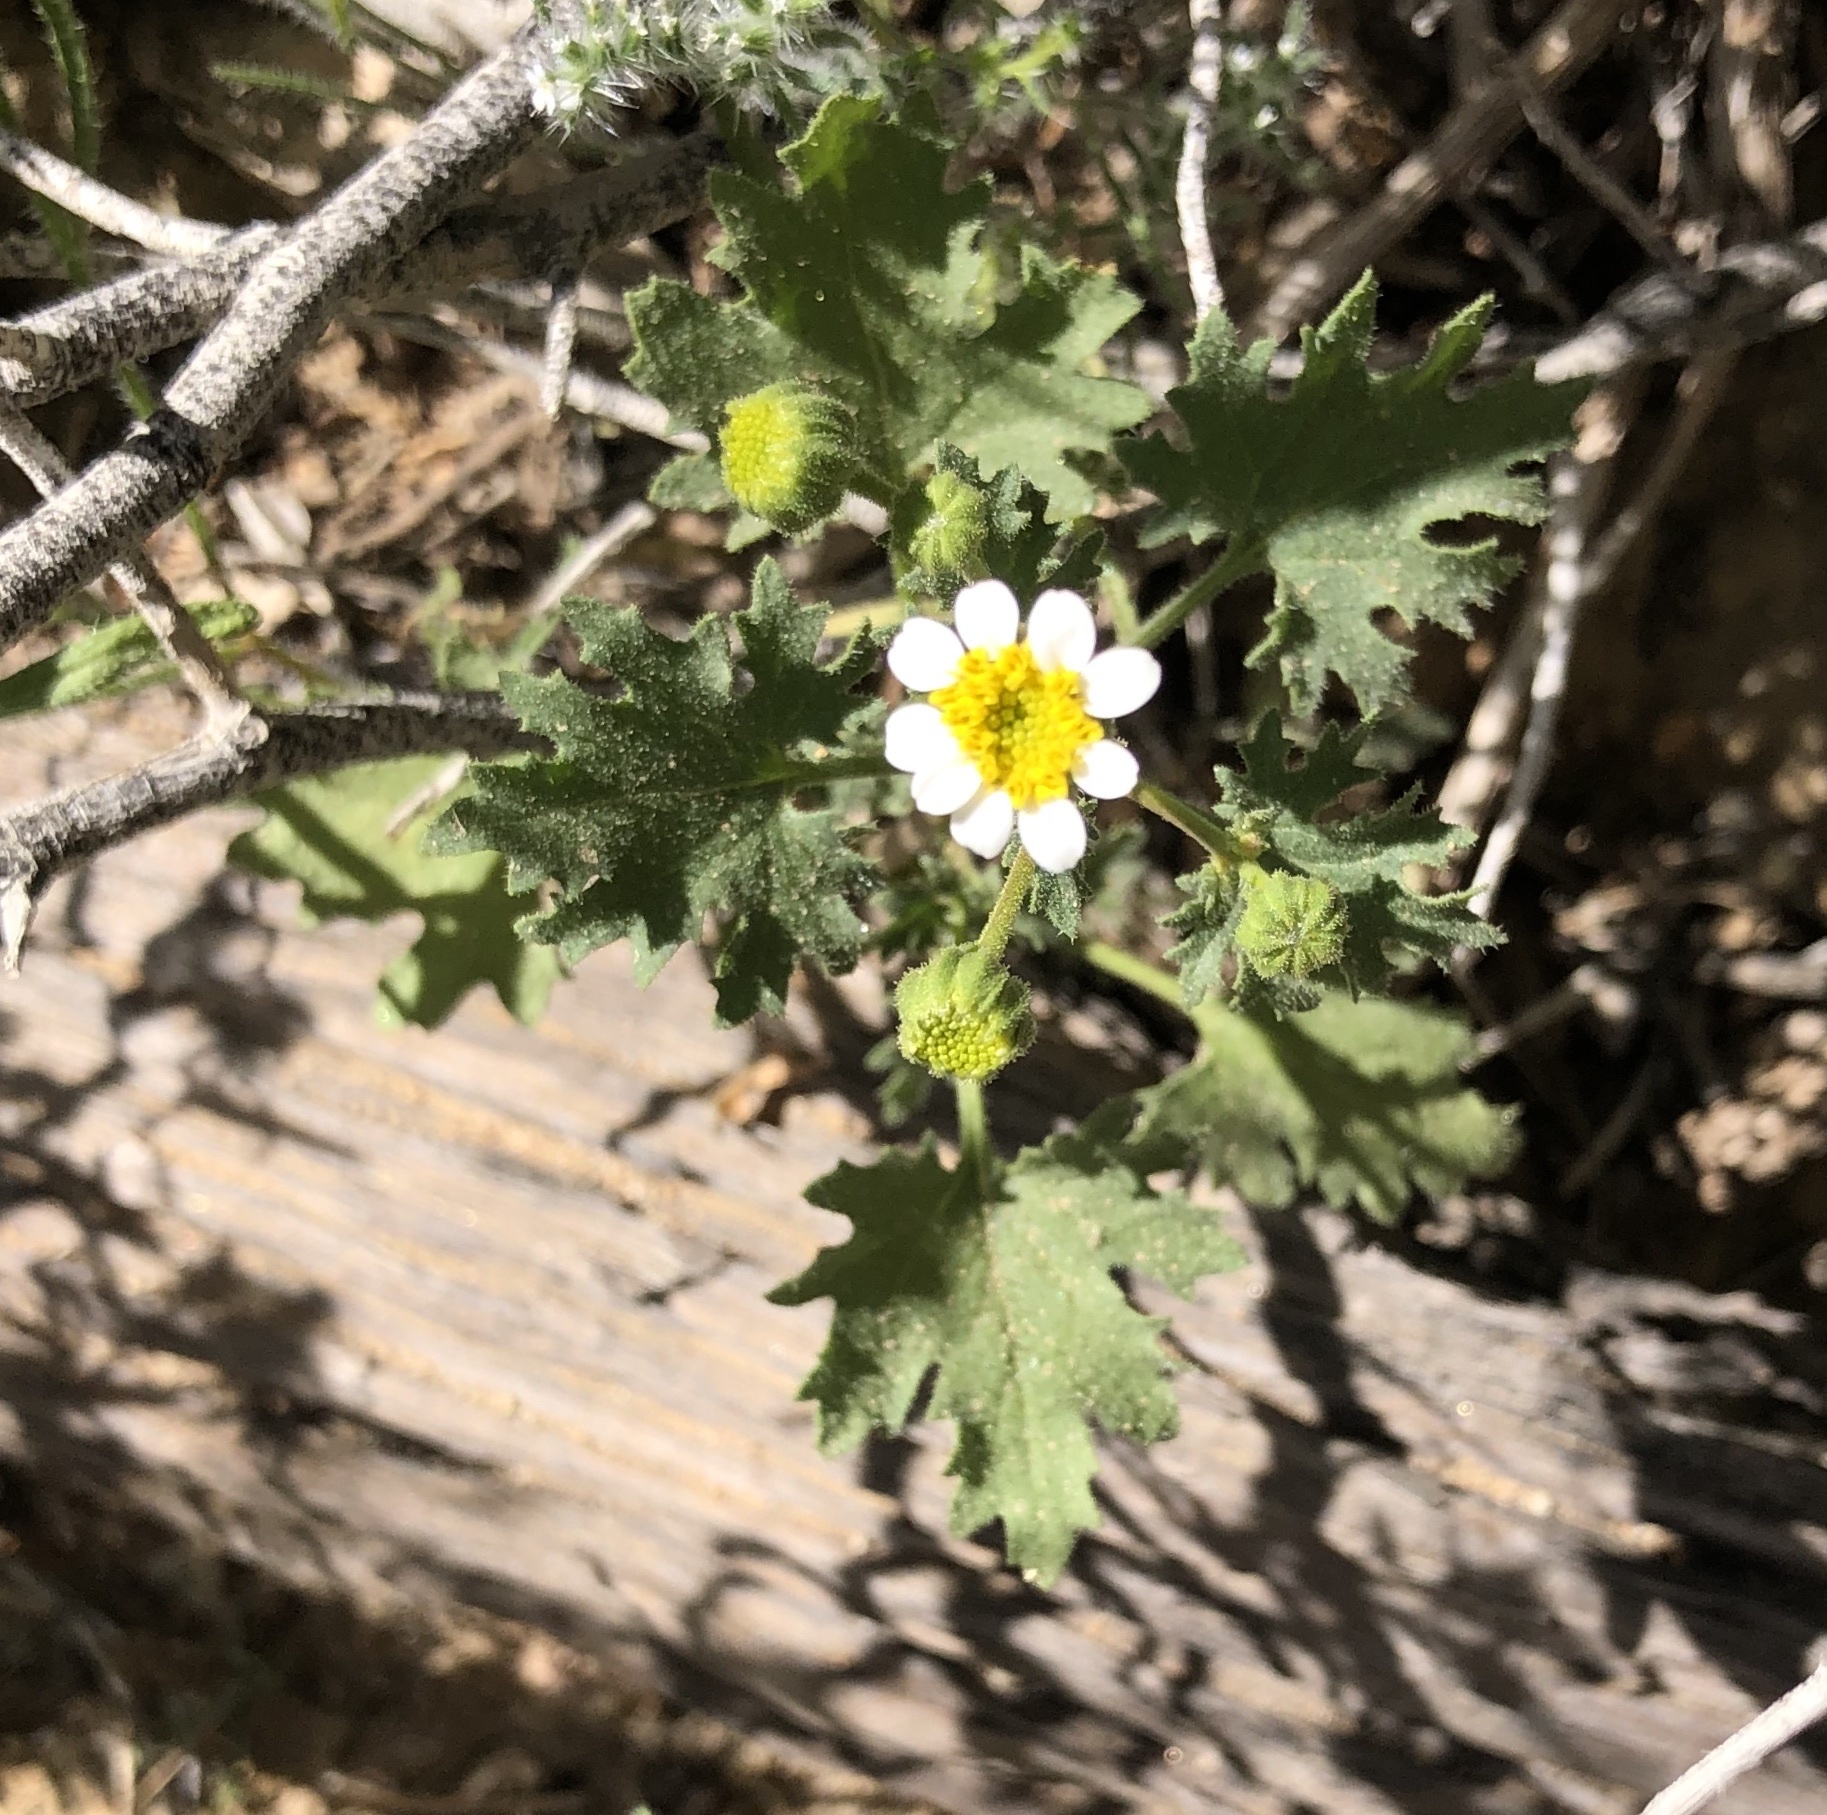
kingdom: Plantae
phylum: Tracheophyta
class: Magnoliopsida
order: Asterales
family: Asteraceae
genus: Laphamia
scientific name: Laphamia emoryi
